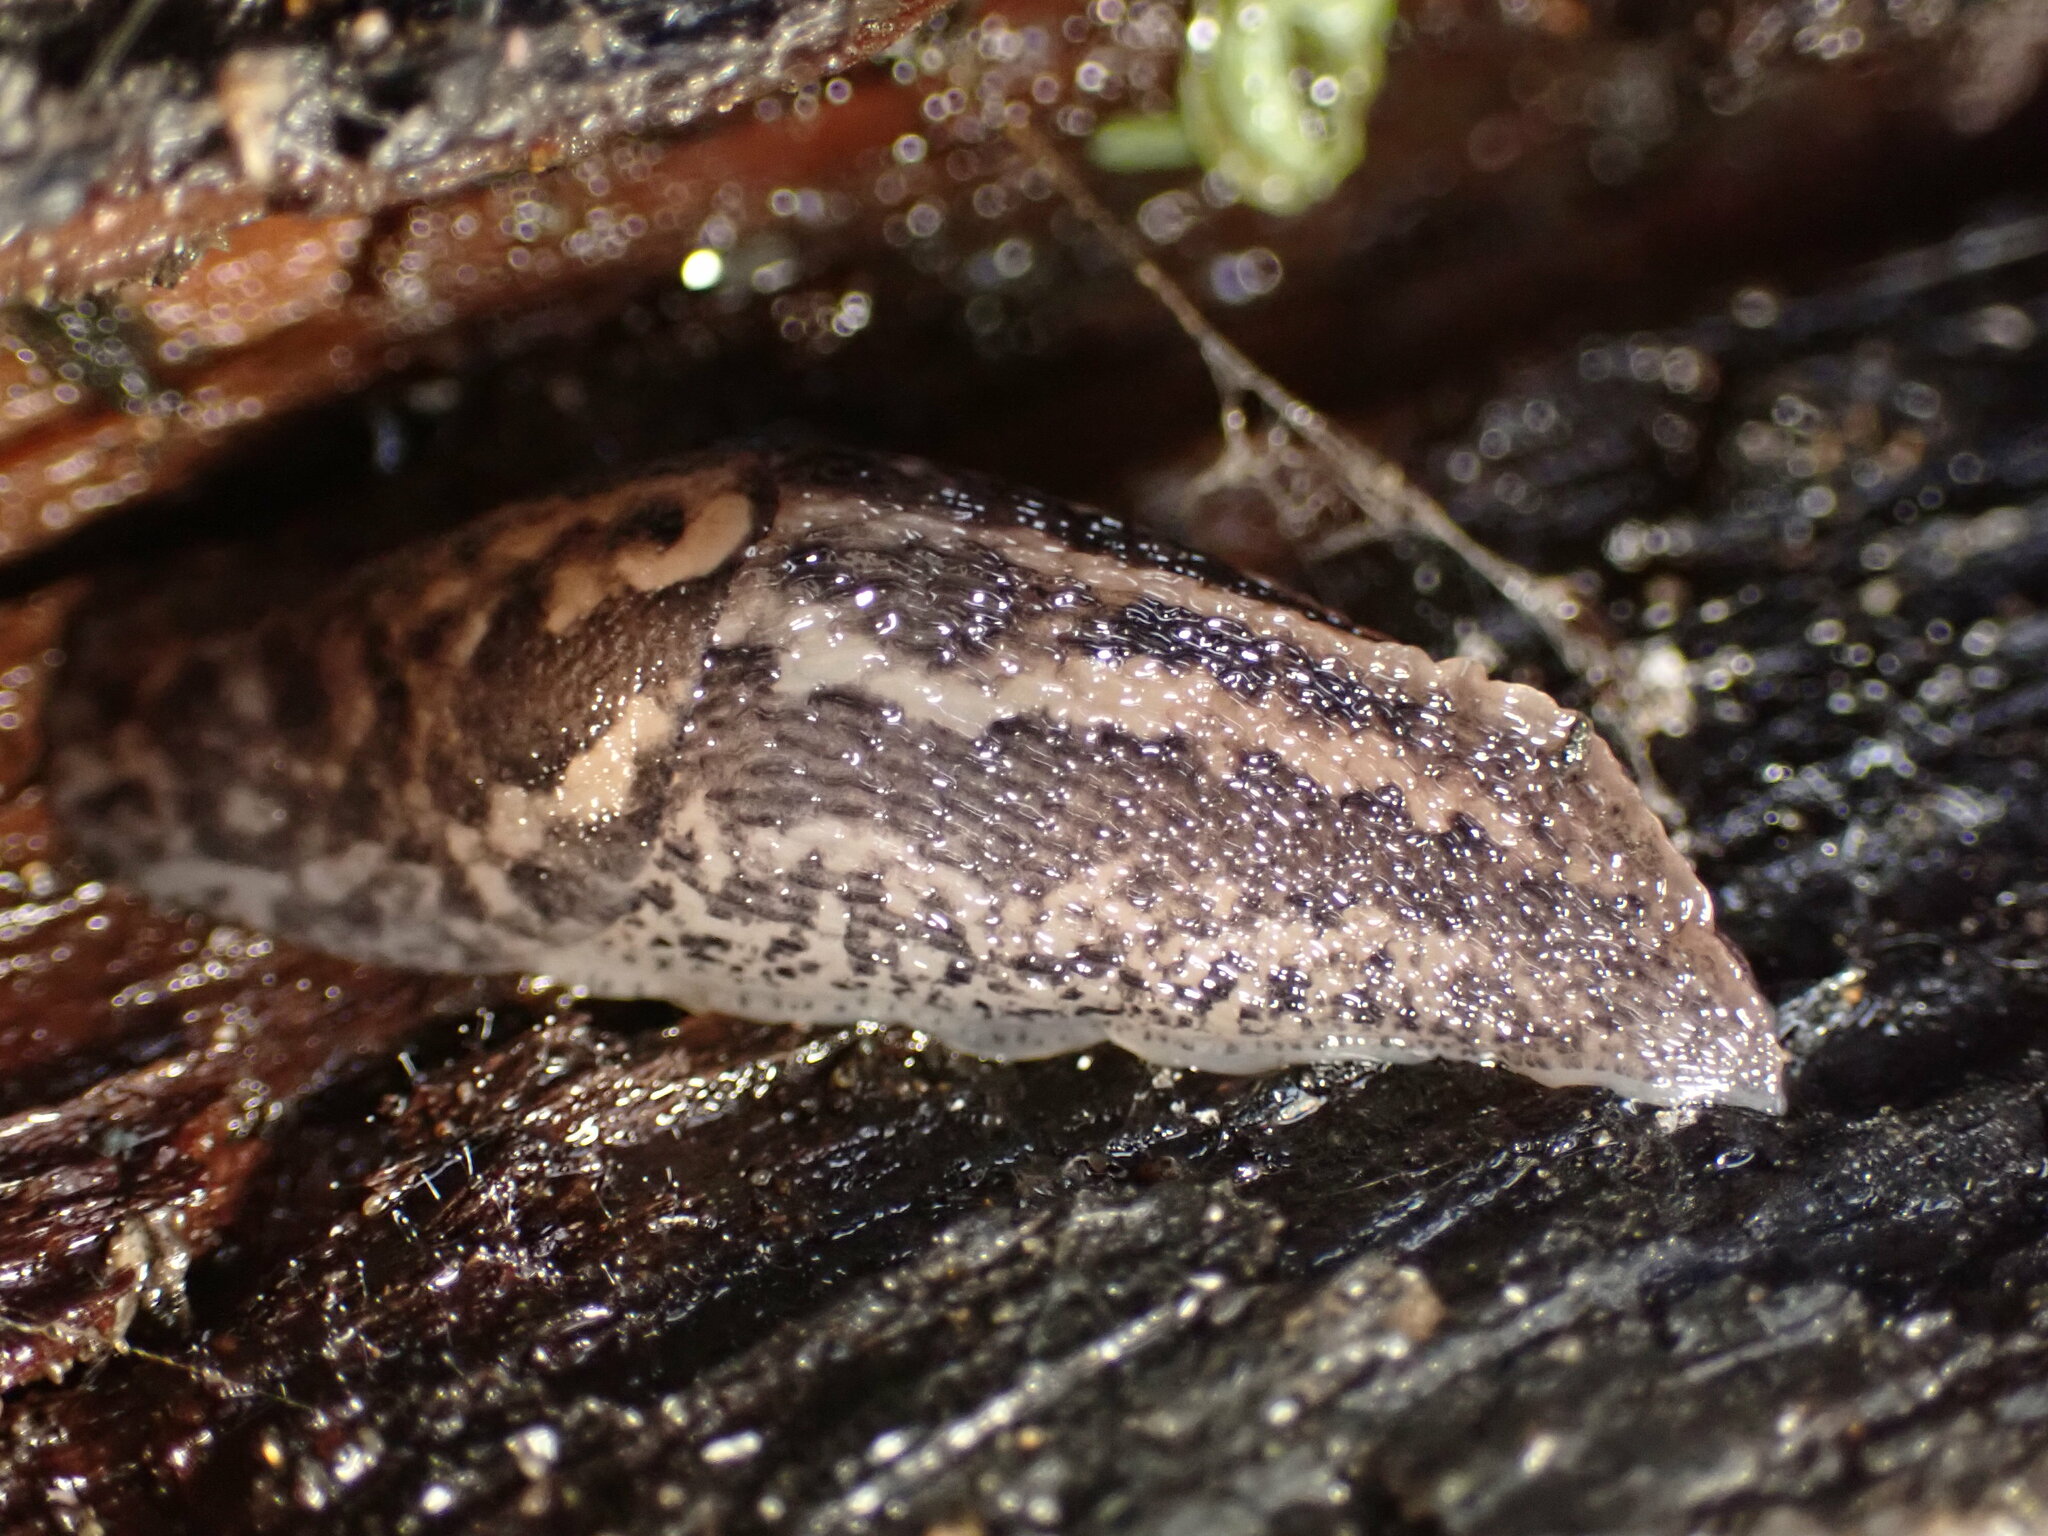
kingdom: Animalia
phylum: Mollusca
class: Gastropoda
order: Stylommatophora
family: Limacidae
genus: Limax
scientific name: Limax maximus
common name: Great grey slug
